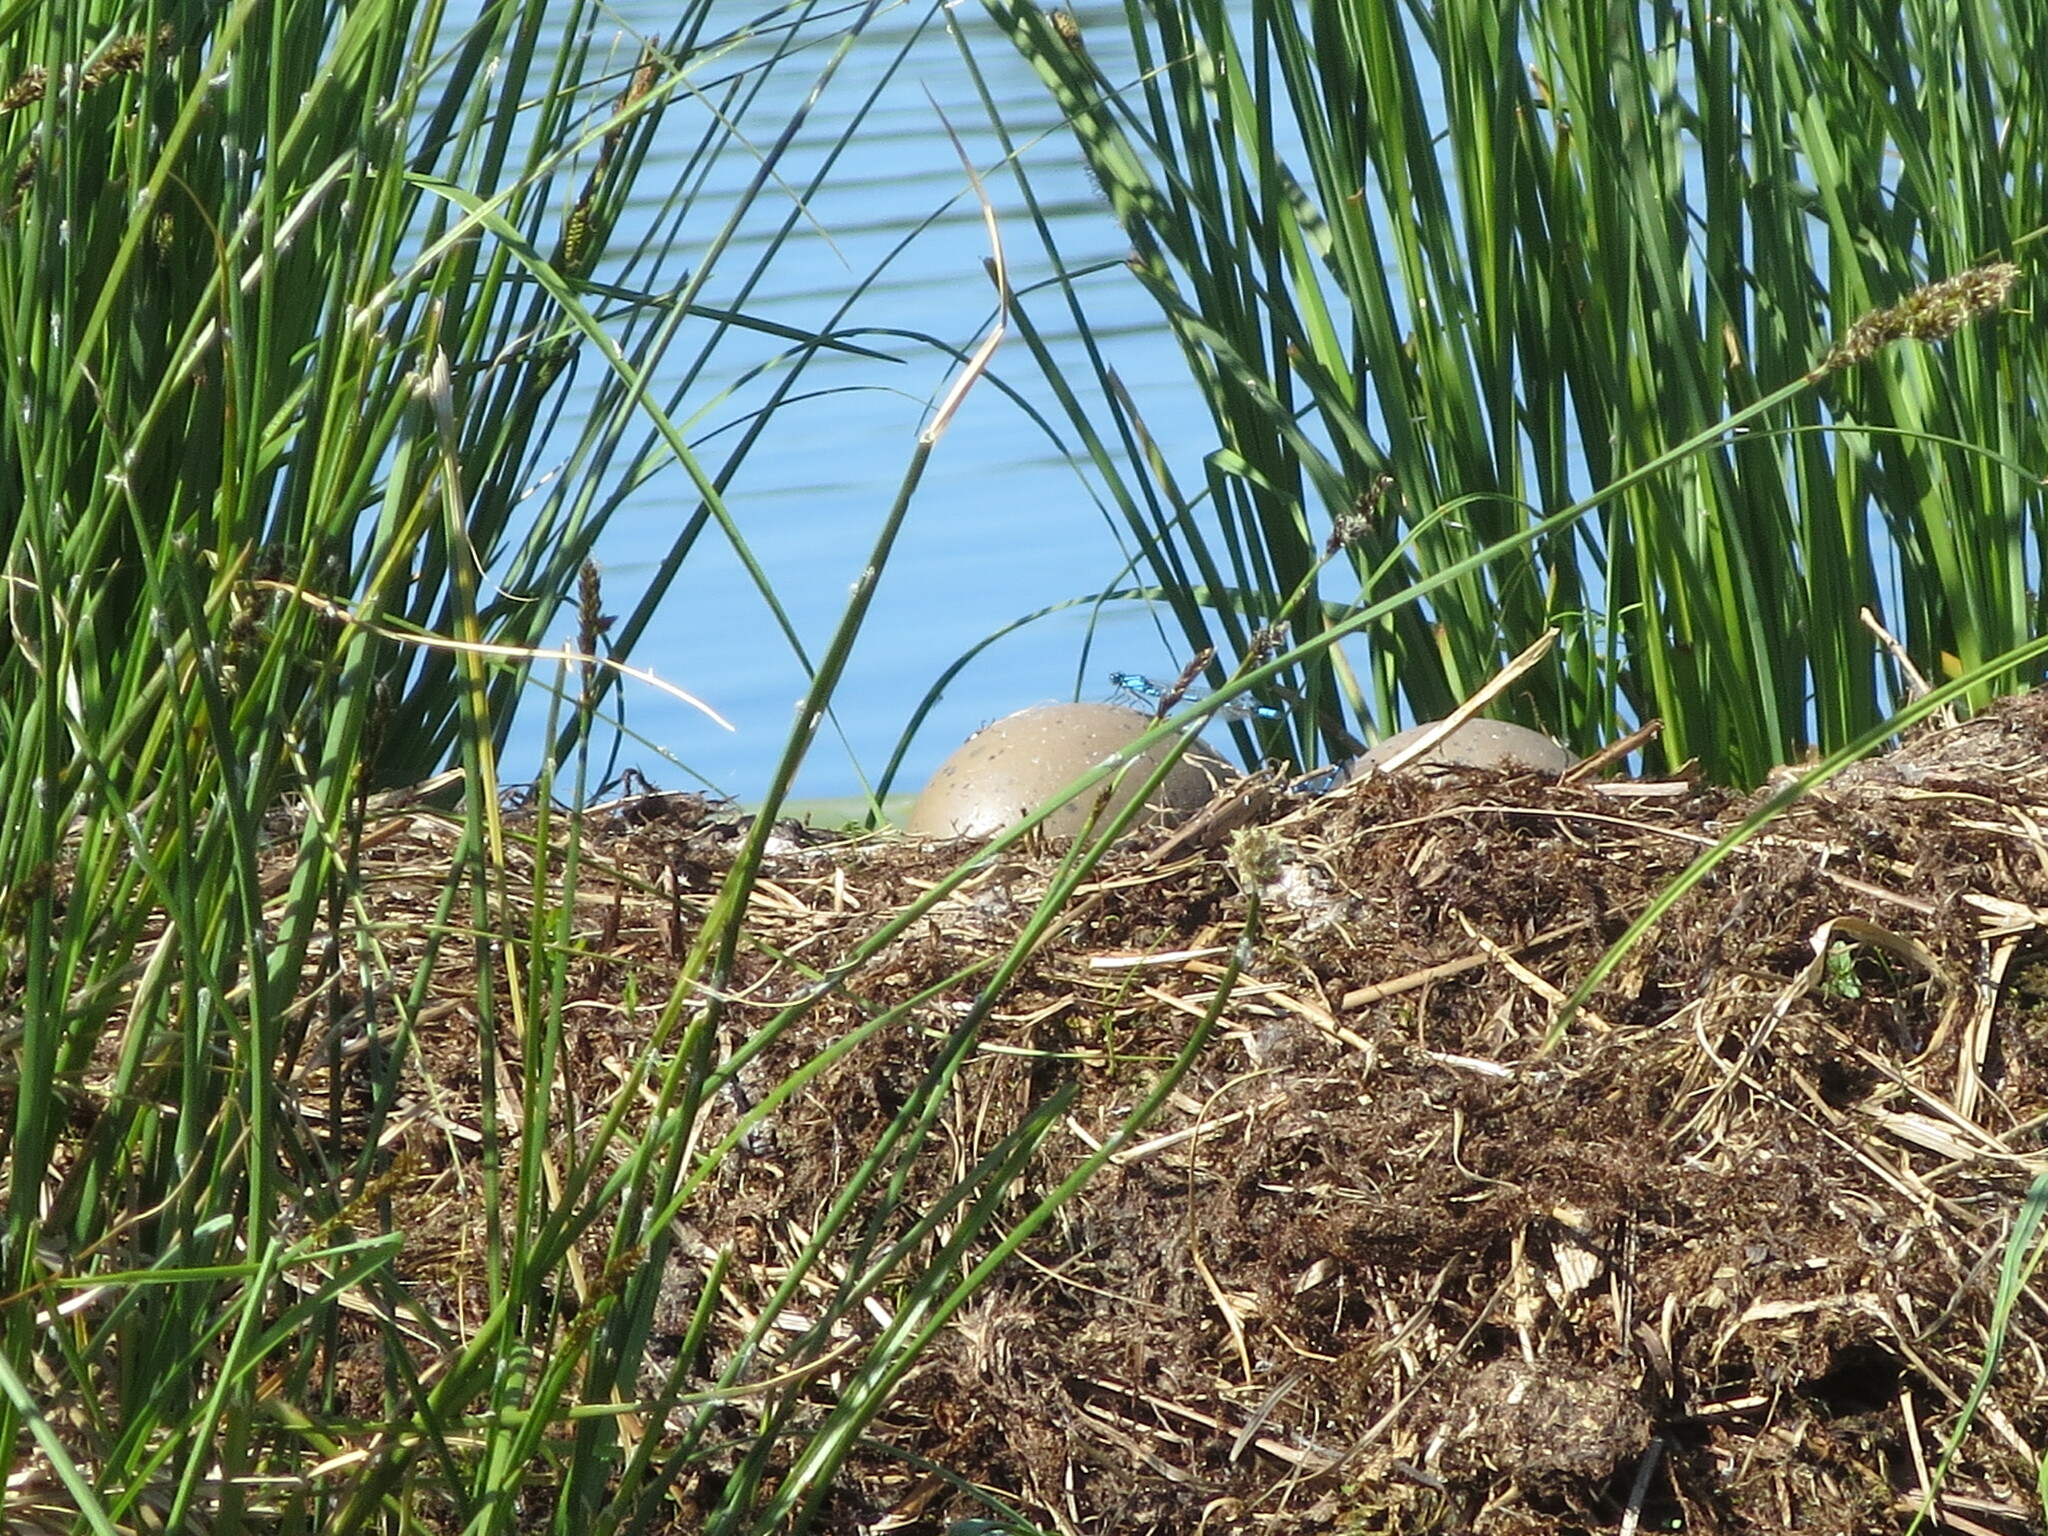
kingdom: Animalia
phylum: Chordata
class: Aves
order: Gaviiformes
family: Gaviidae
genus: Gavia
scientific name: Gavia immer
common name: Common loon
